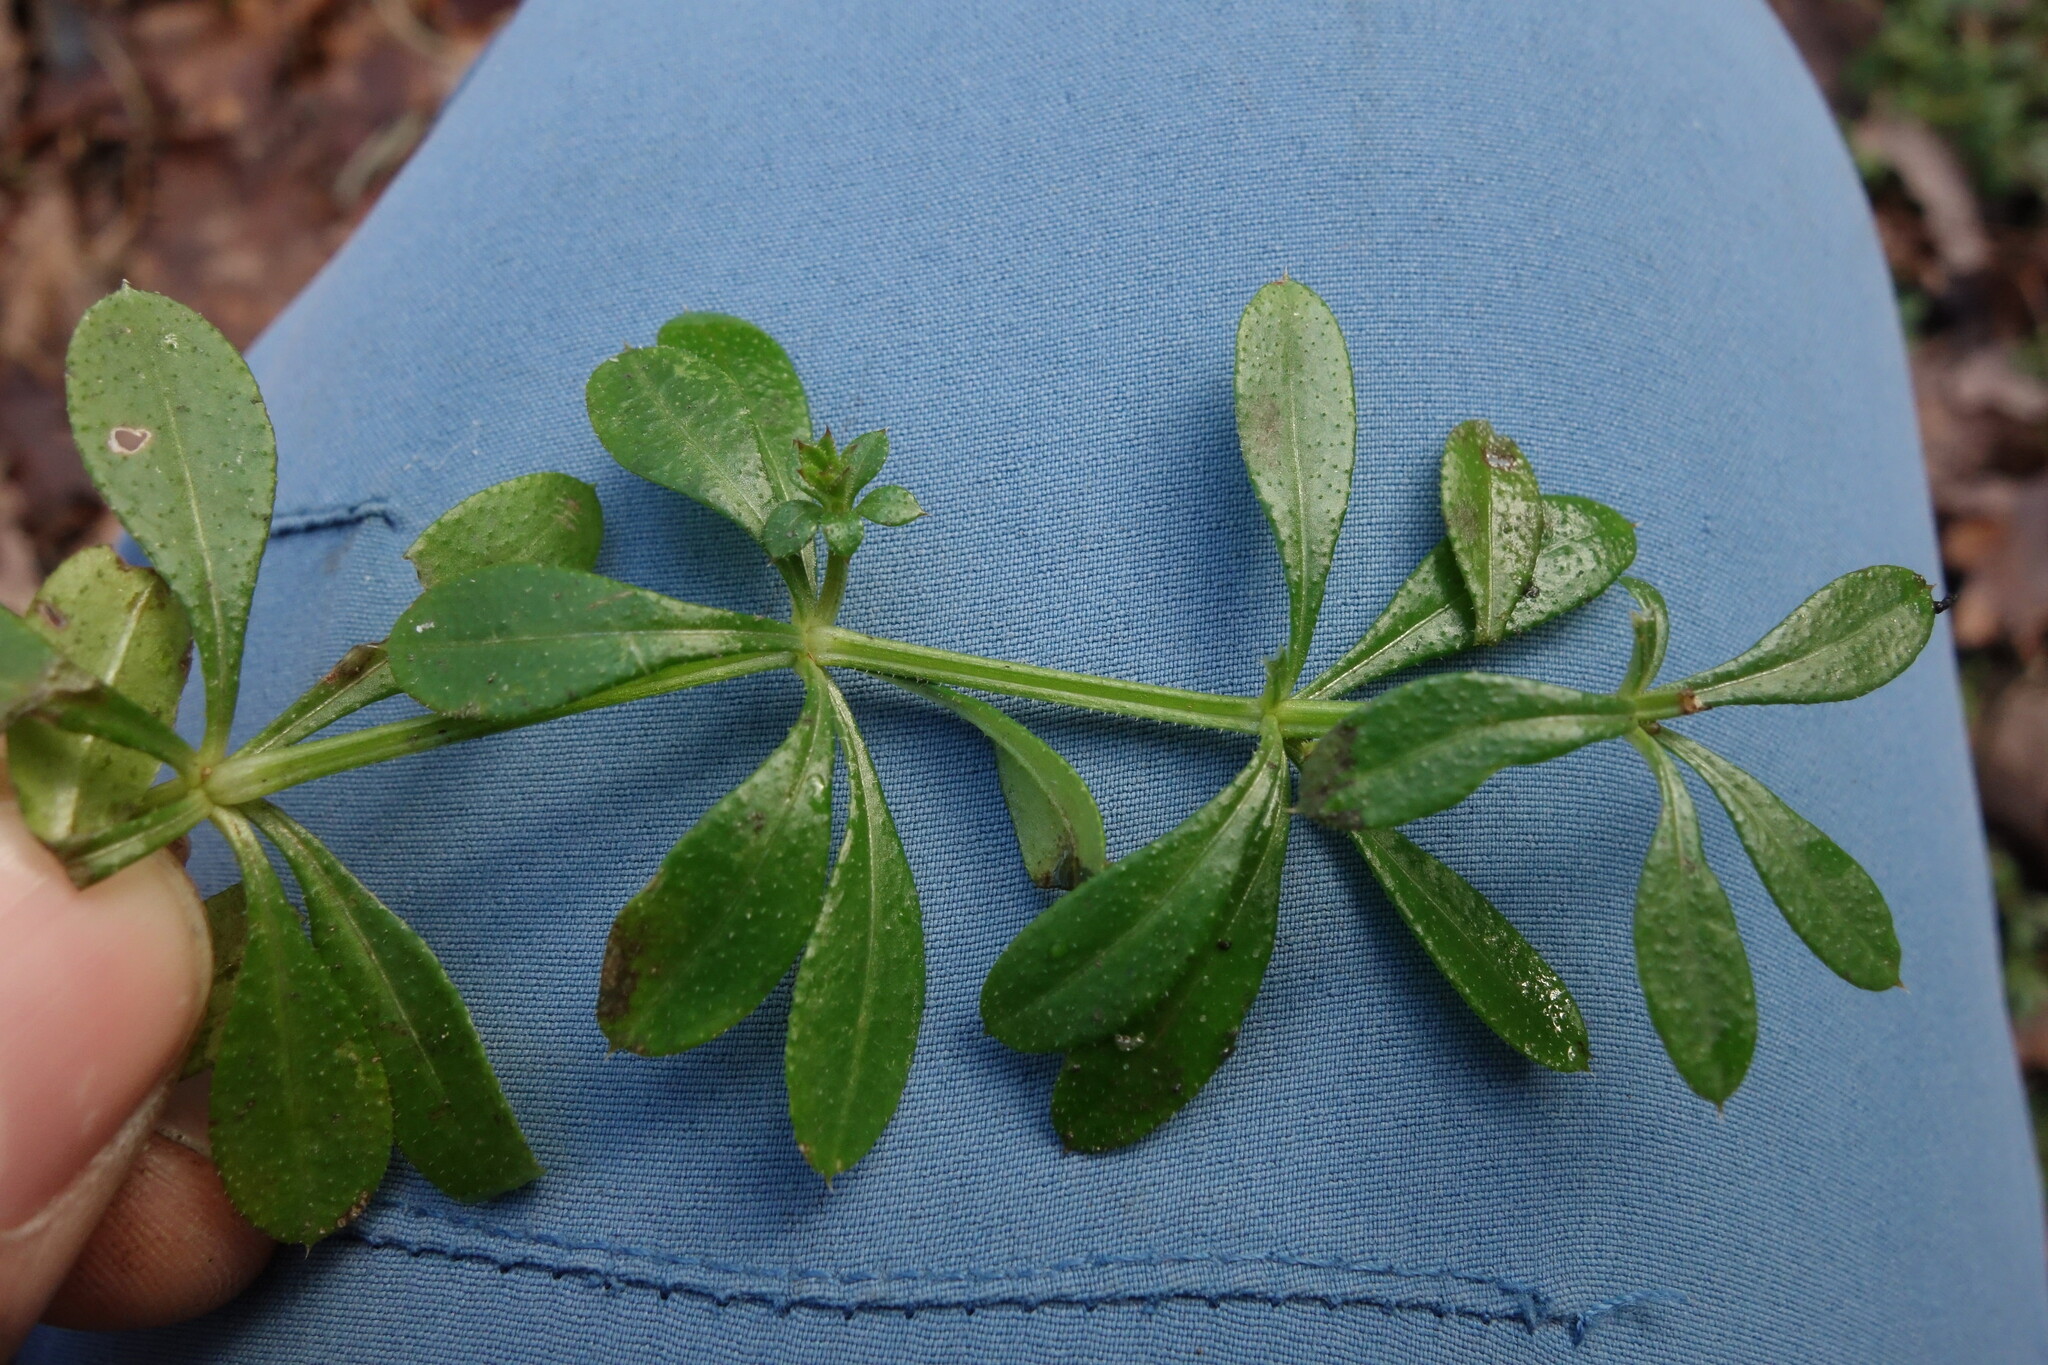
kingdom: Plantae
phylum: Tracheophyta
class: Magnoliopsida
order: Gentianales
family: Rubiaceae
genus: Galium
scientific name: Galium aparine
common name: Cleavers
